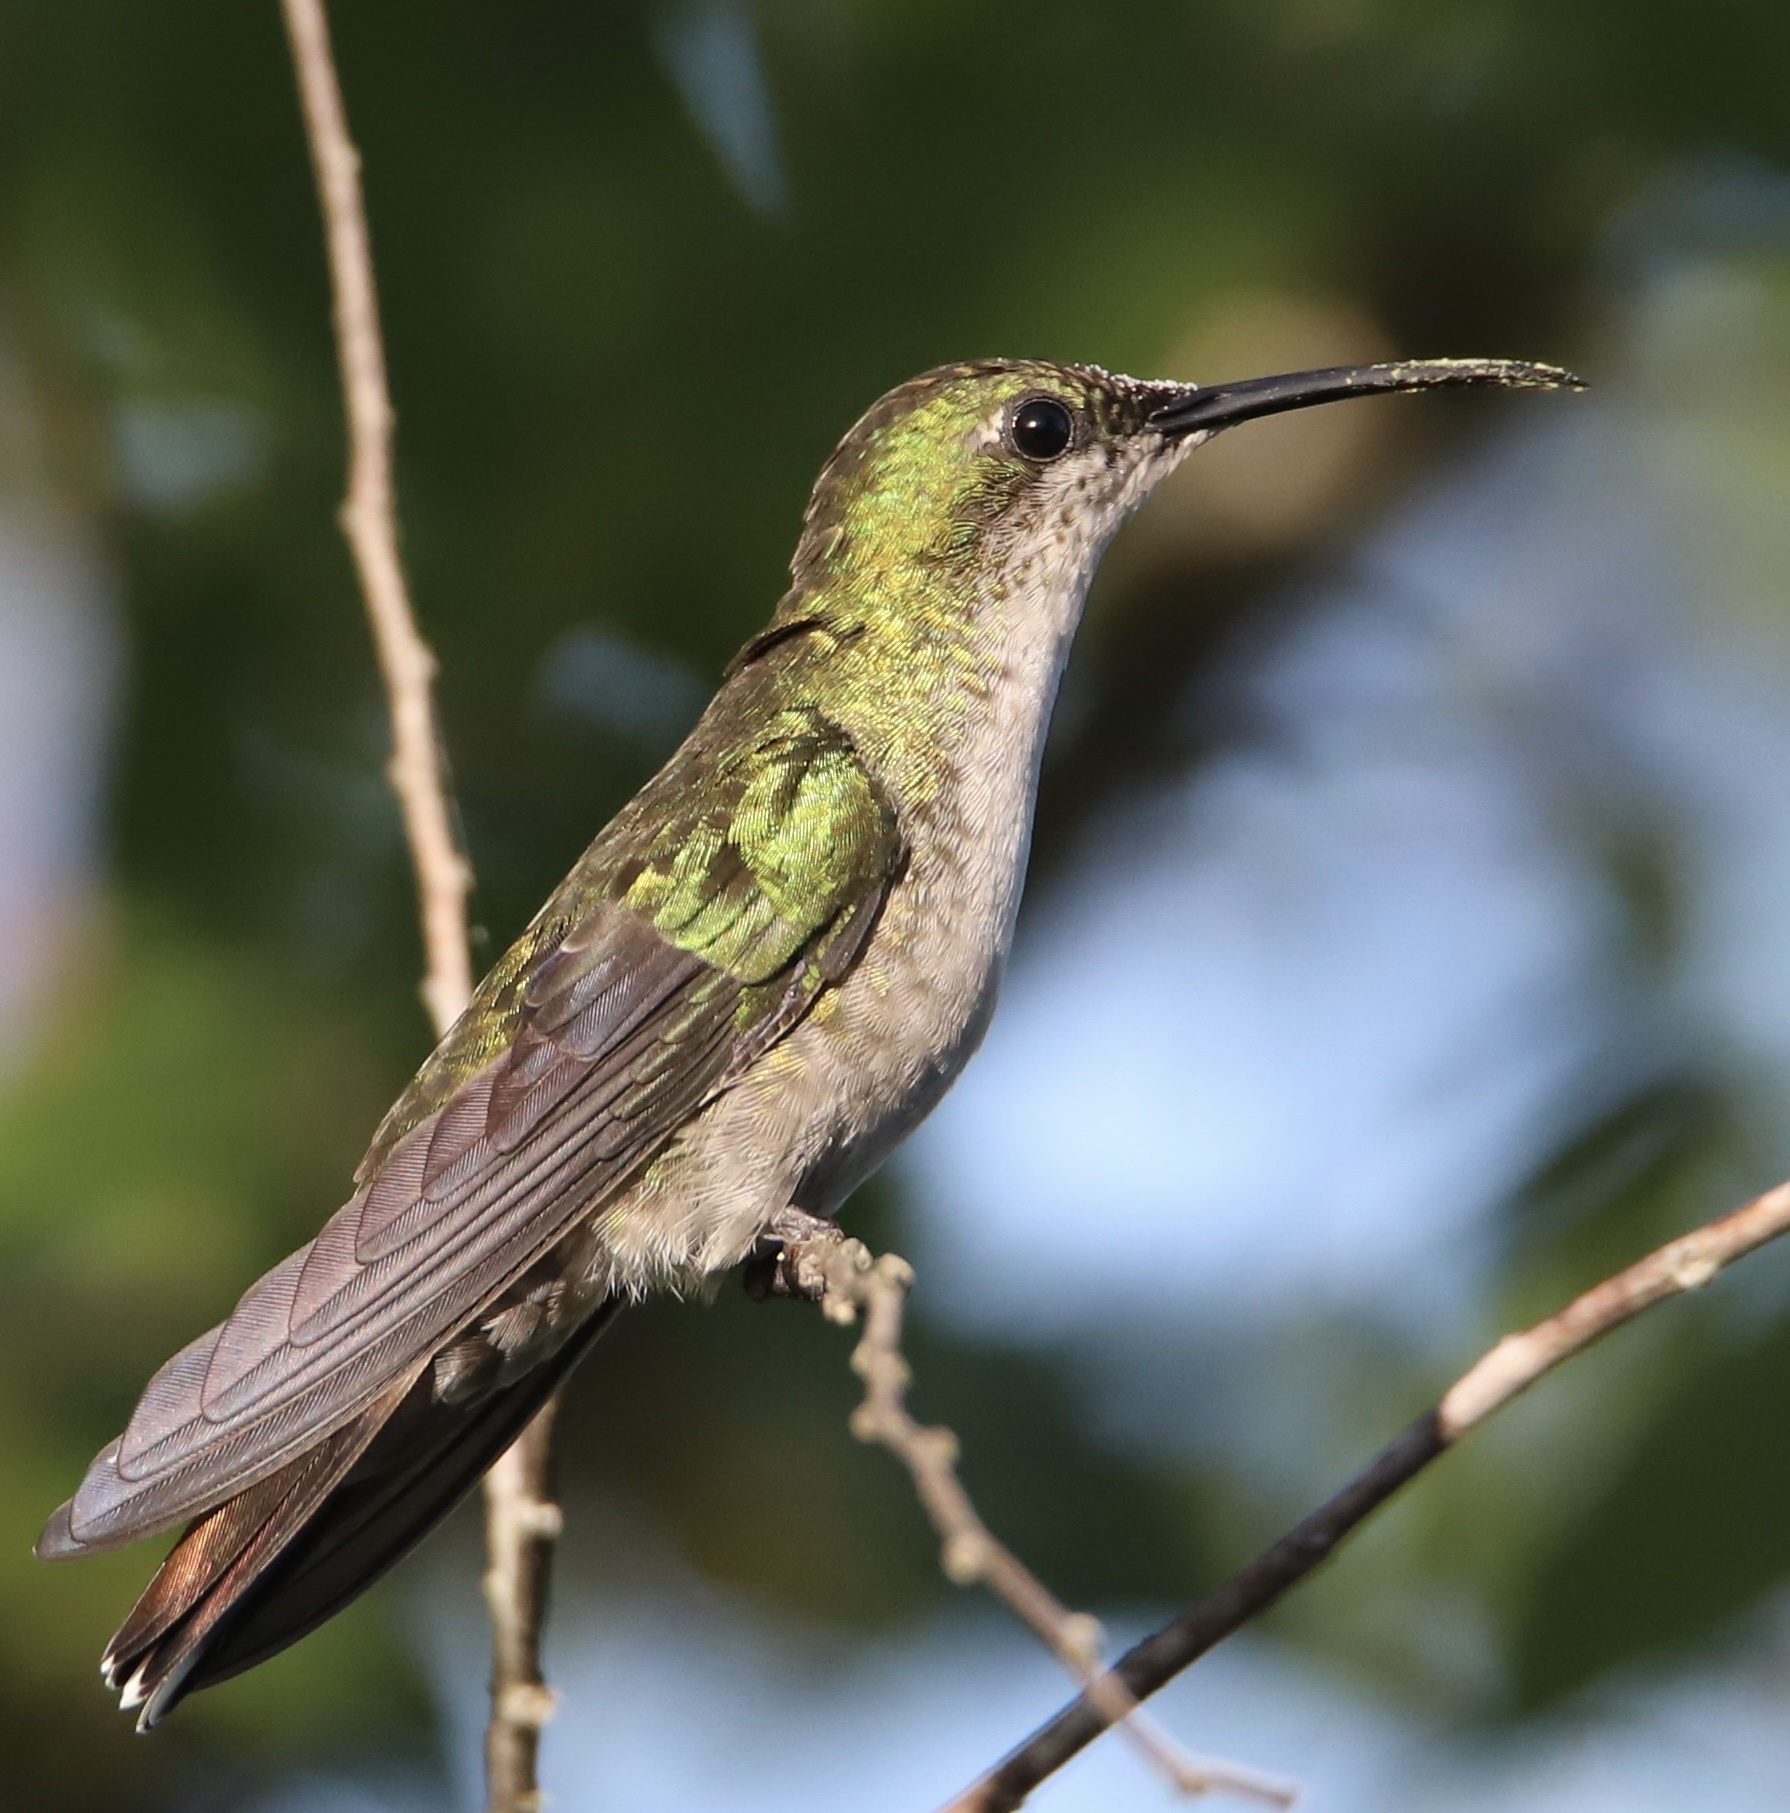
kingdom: Animalia
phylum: Chordata
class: Aves
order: Apodiformes
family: Trochilidae
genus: Anthracothorax
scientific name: Anthracothorax dominicus
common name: Antillean mango
